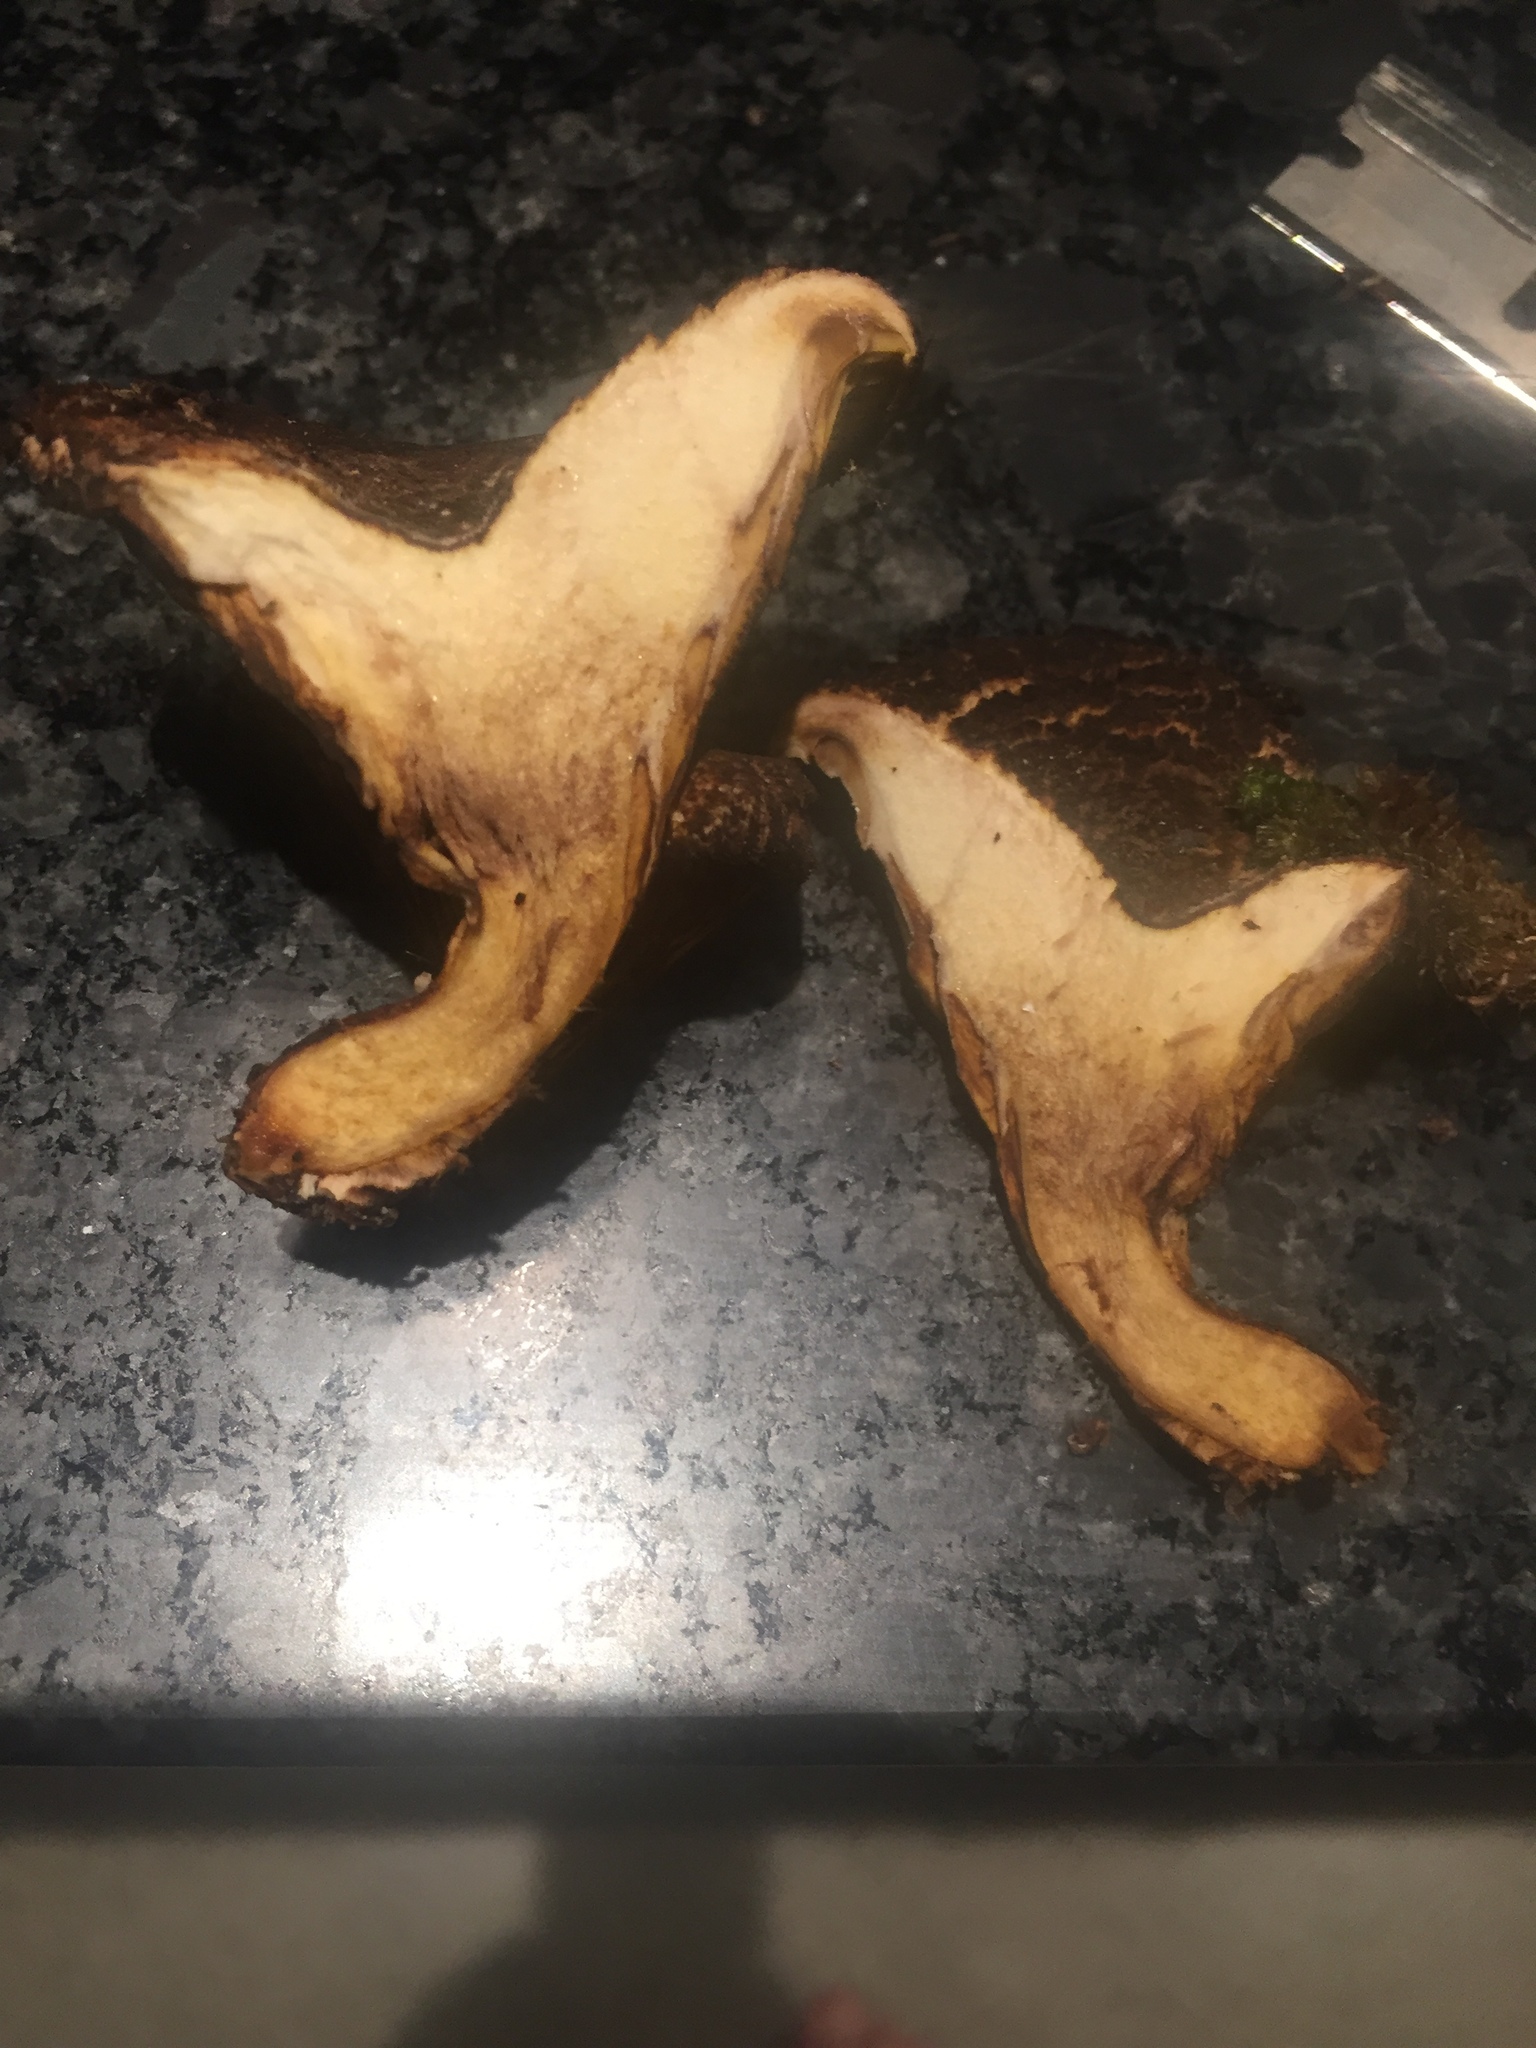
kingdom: Fungi
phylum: Basidiomycota
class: Agaricomycetes
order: Boletales
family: Serpulaceae
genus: Austropaxillus
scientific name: Austropaxillus squarrosus
